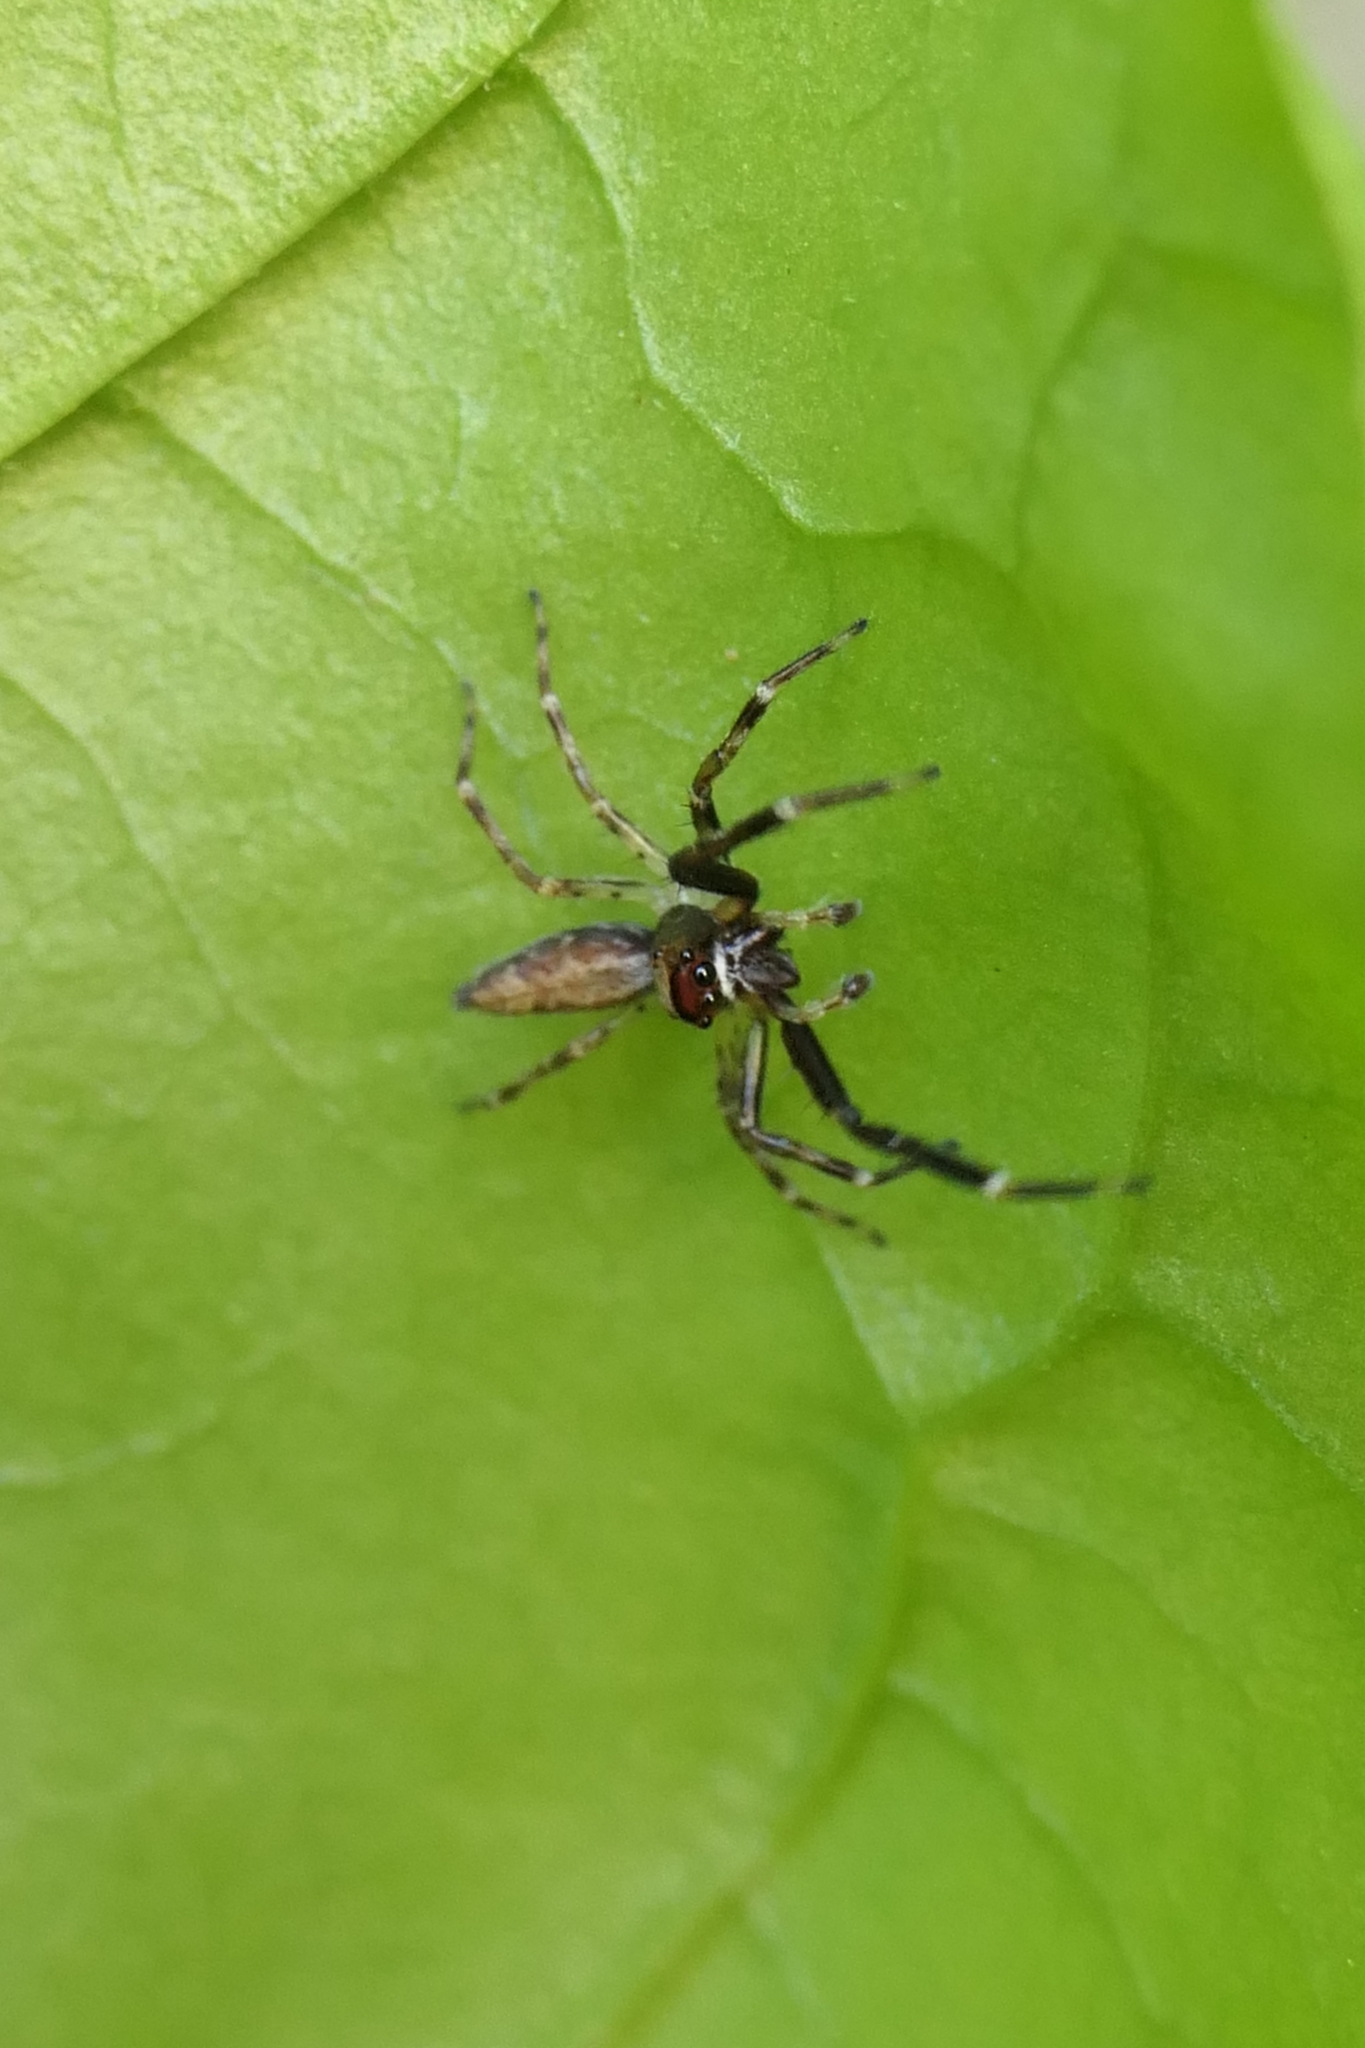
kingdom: Animalia
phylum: Arthropoda
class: Arachnida
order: Araneae
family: Salticidae
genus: Helpis
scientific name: Helpis minitabunda
